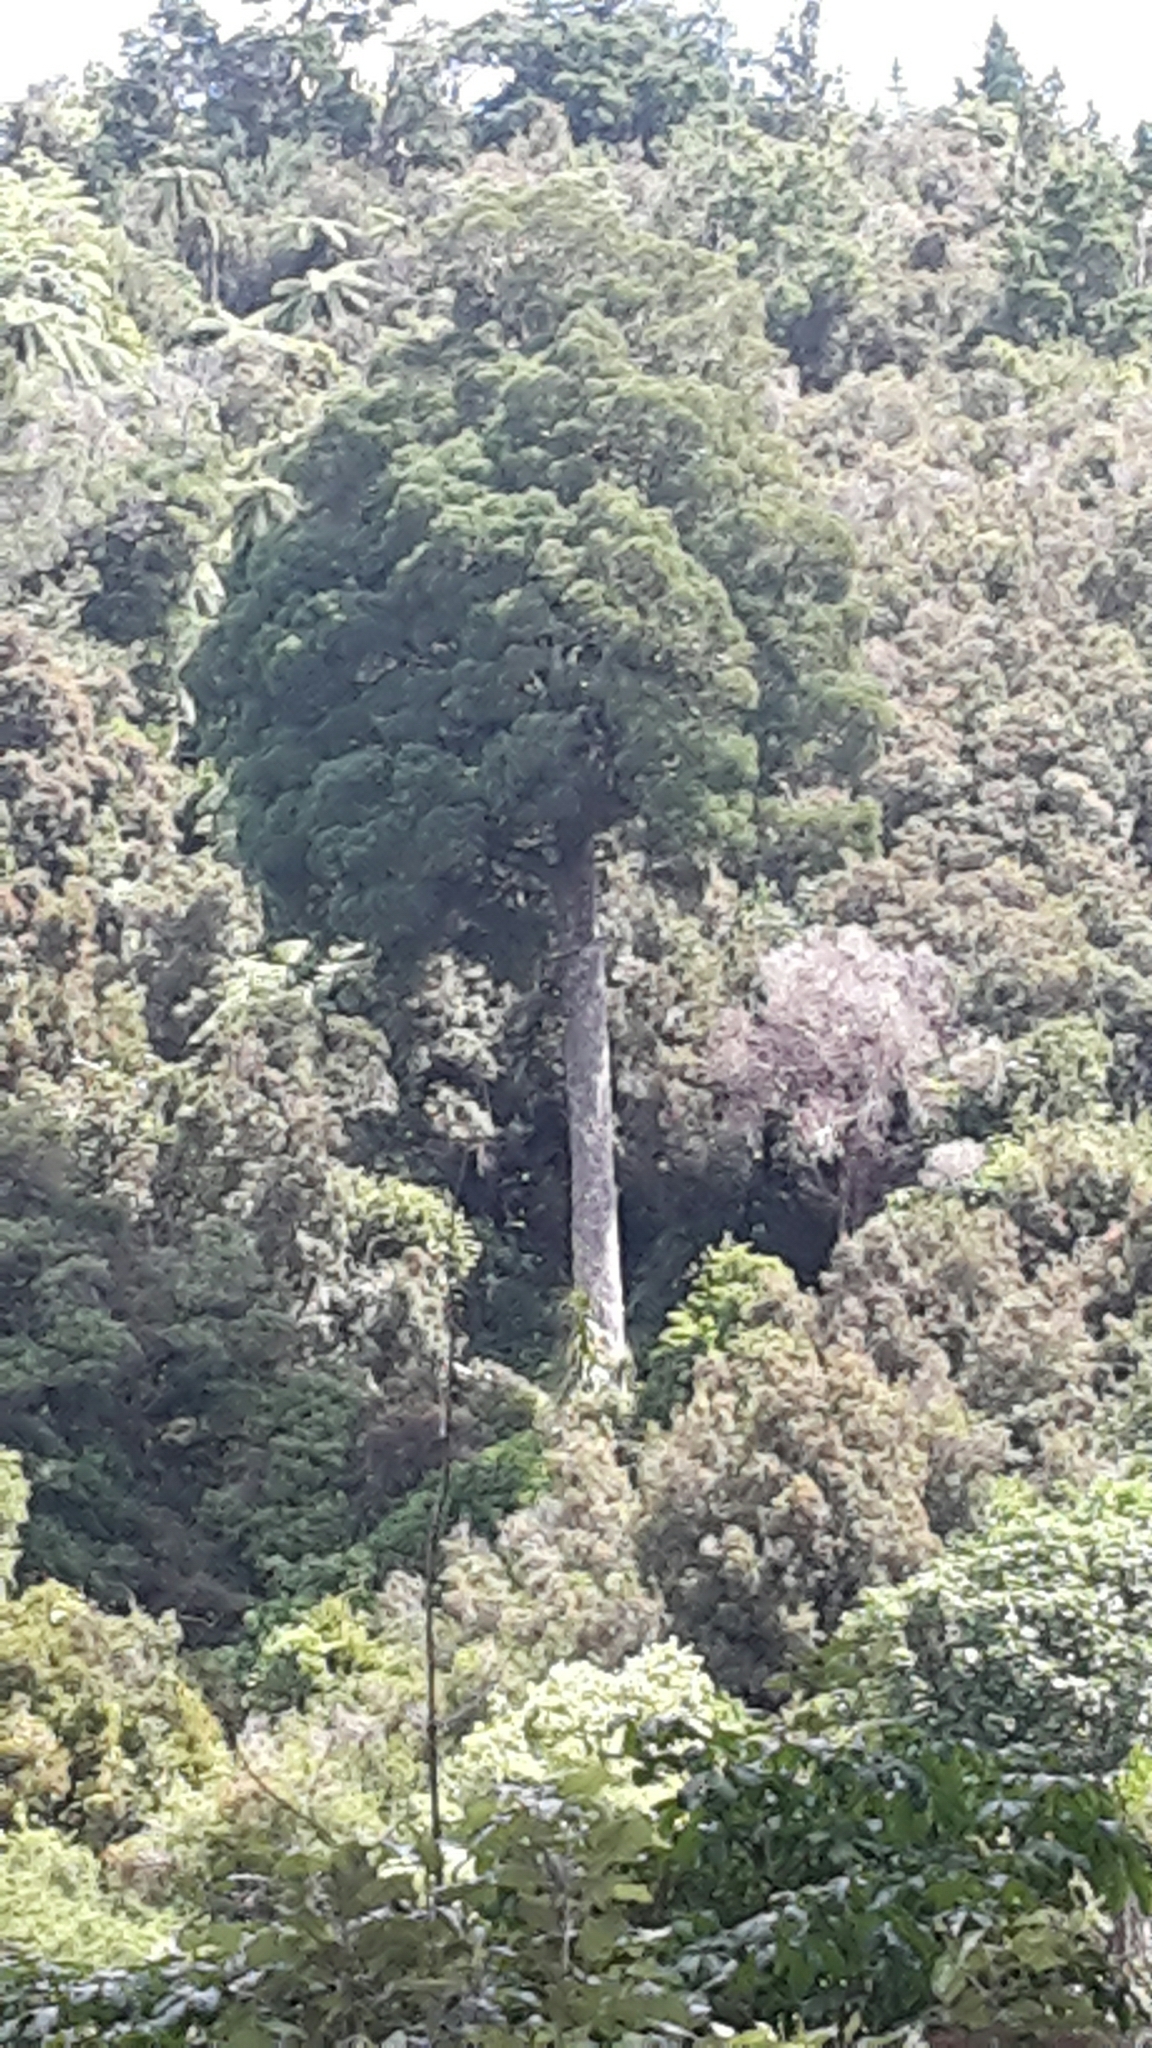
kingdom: Plantae
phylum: Tracheophyta
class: Pinopsida
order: Pinales
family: Podocarpaceae
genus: Dacrycarpus
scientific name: Dacrycarpus dacrydioides
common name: White pine
